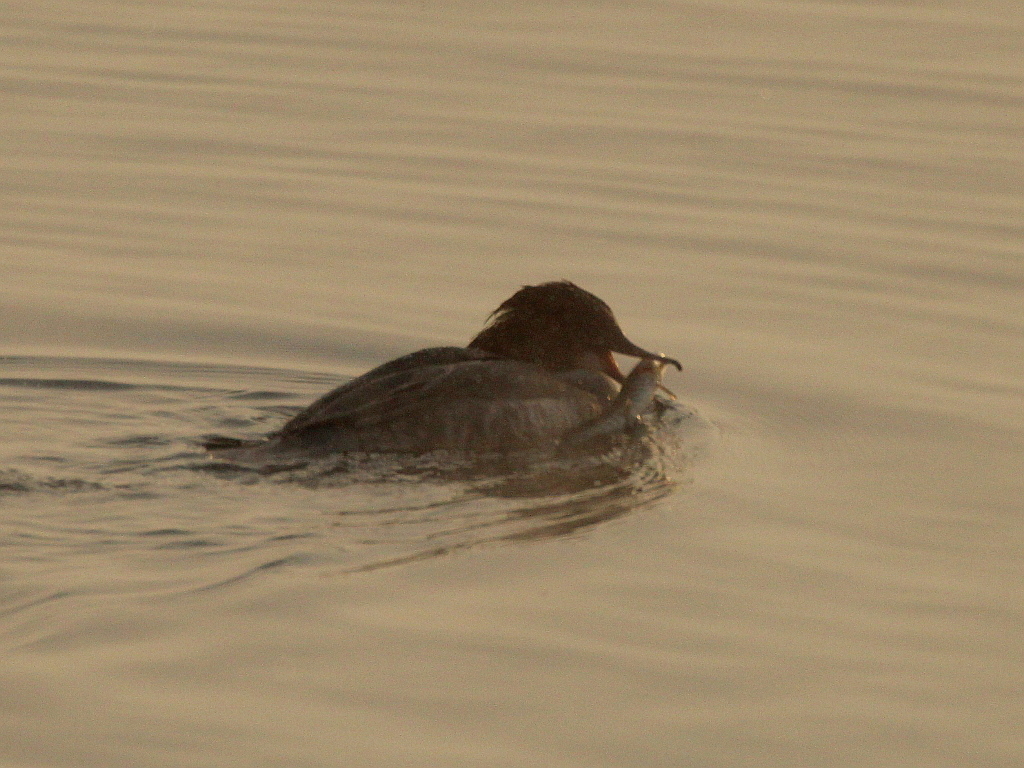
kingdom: Animalia
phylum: Chordata
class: Aves
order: Anseriformes
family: Anatidae
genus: Mergus
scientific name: Mergus merganser
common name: Common merganser
